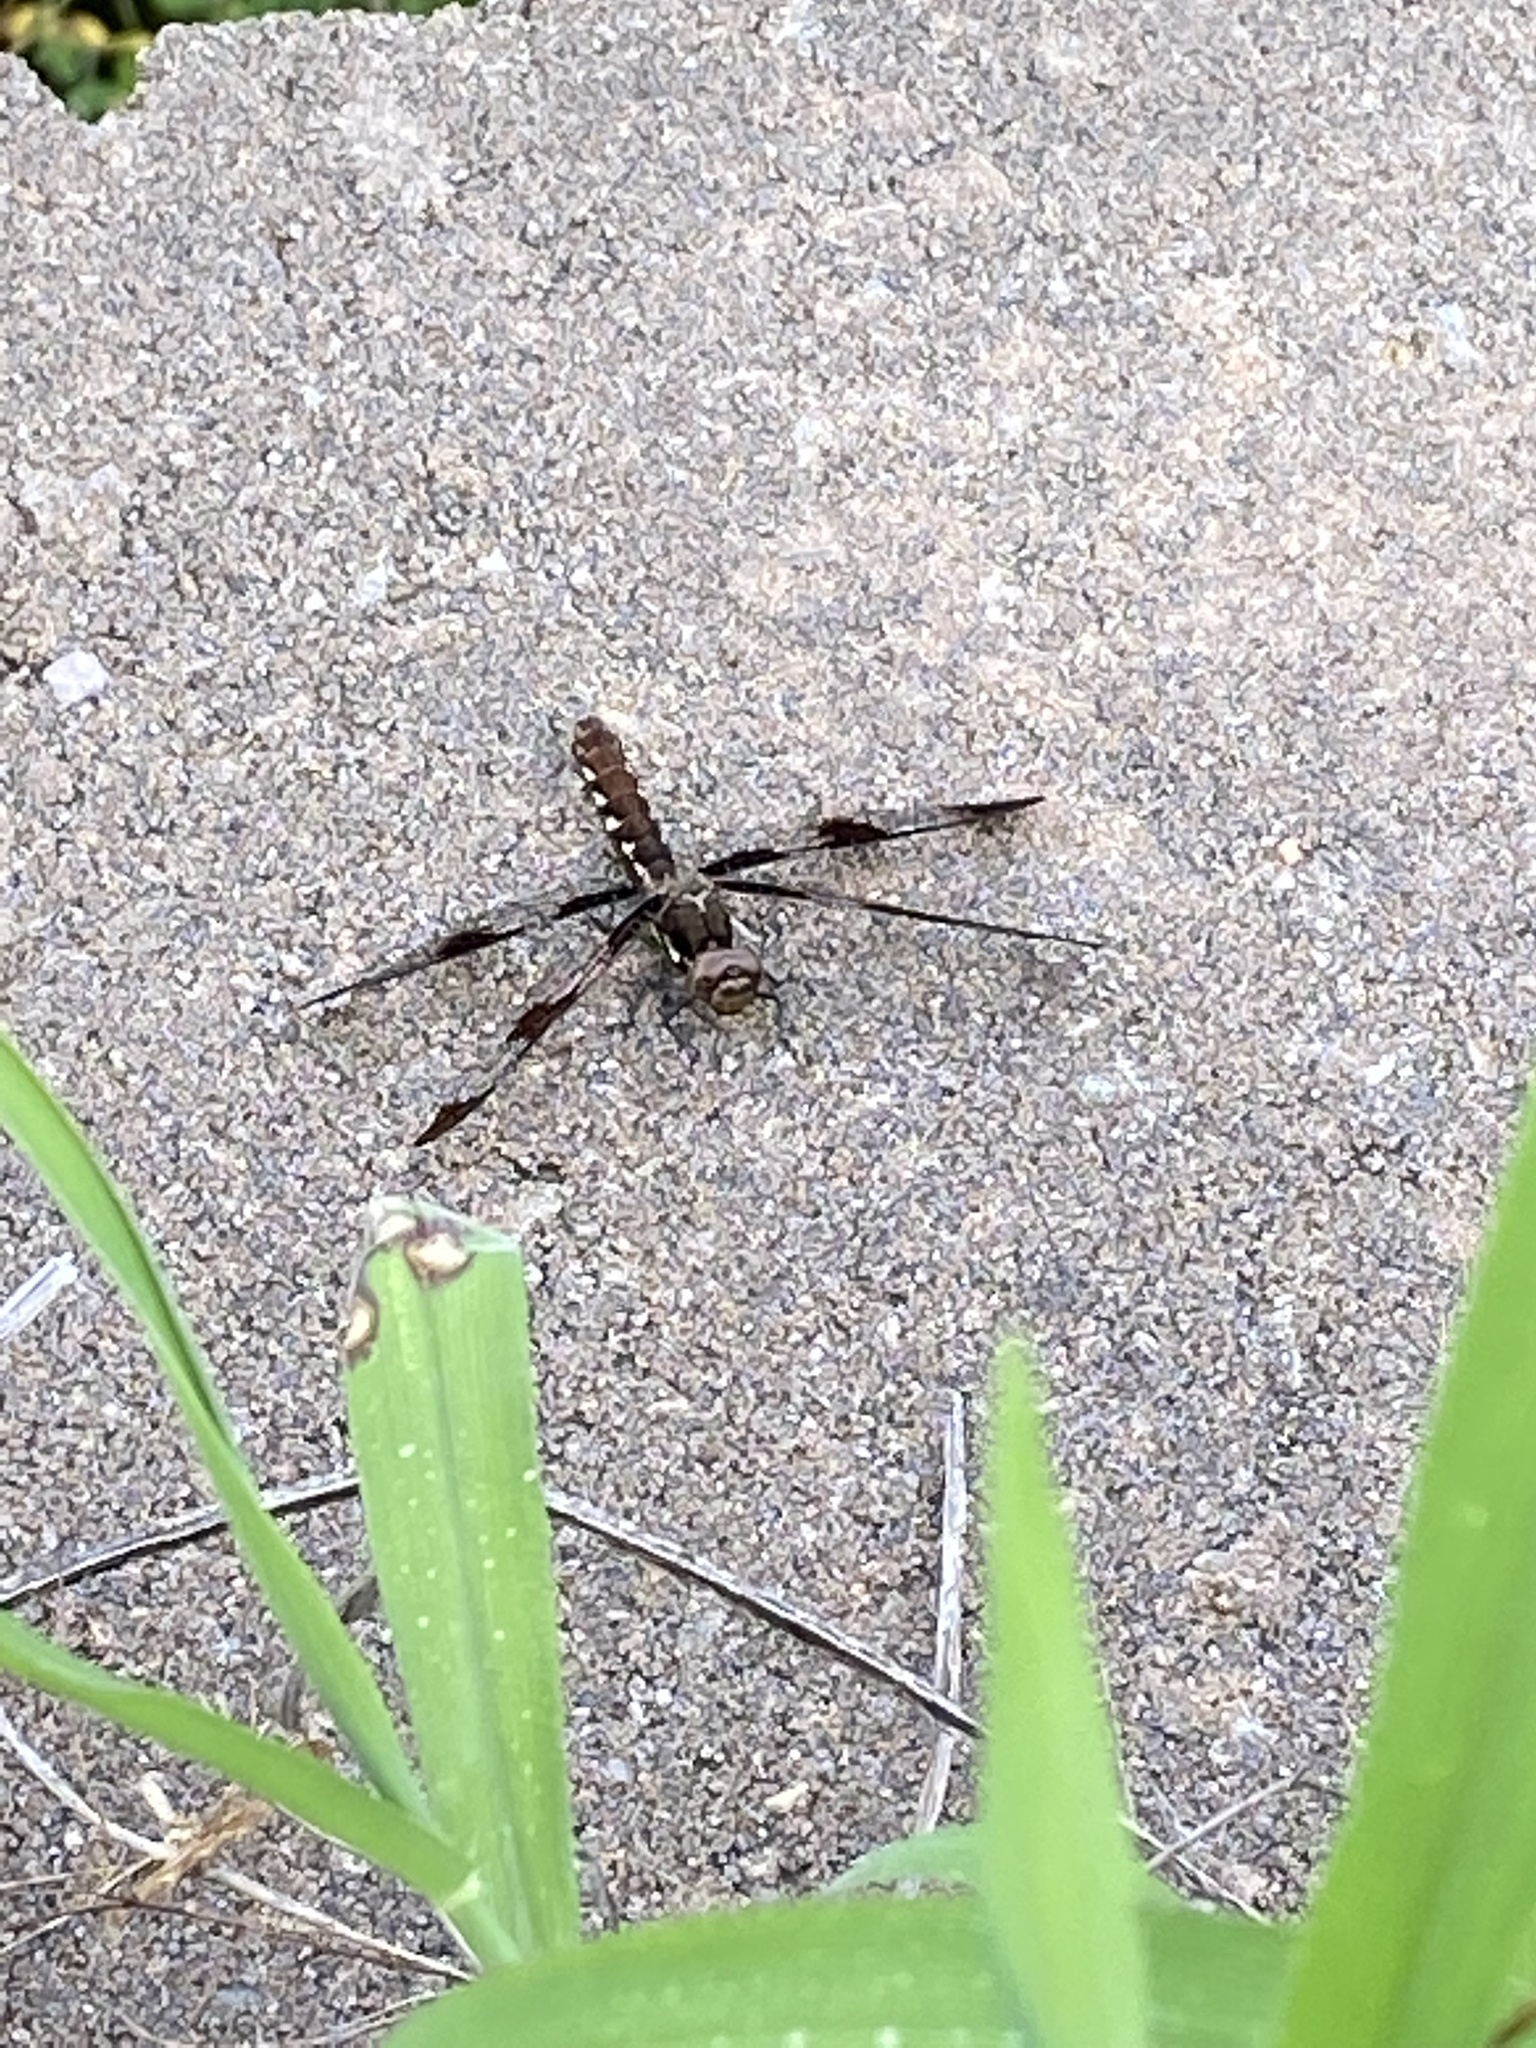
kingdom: Animalia
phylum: Arthropoda
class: Insecta
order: Odonata
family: Libellulidae
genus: Plathemis
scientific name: Plathemis lydia
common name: Common whitetail
